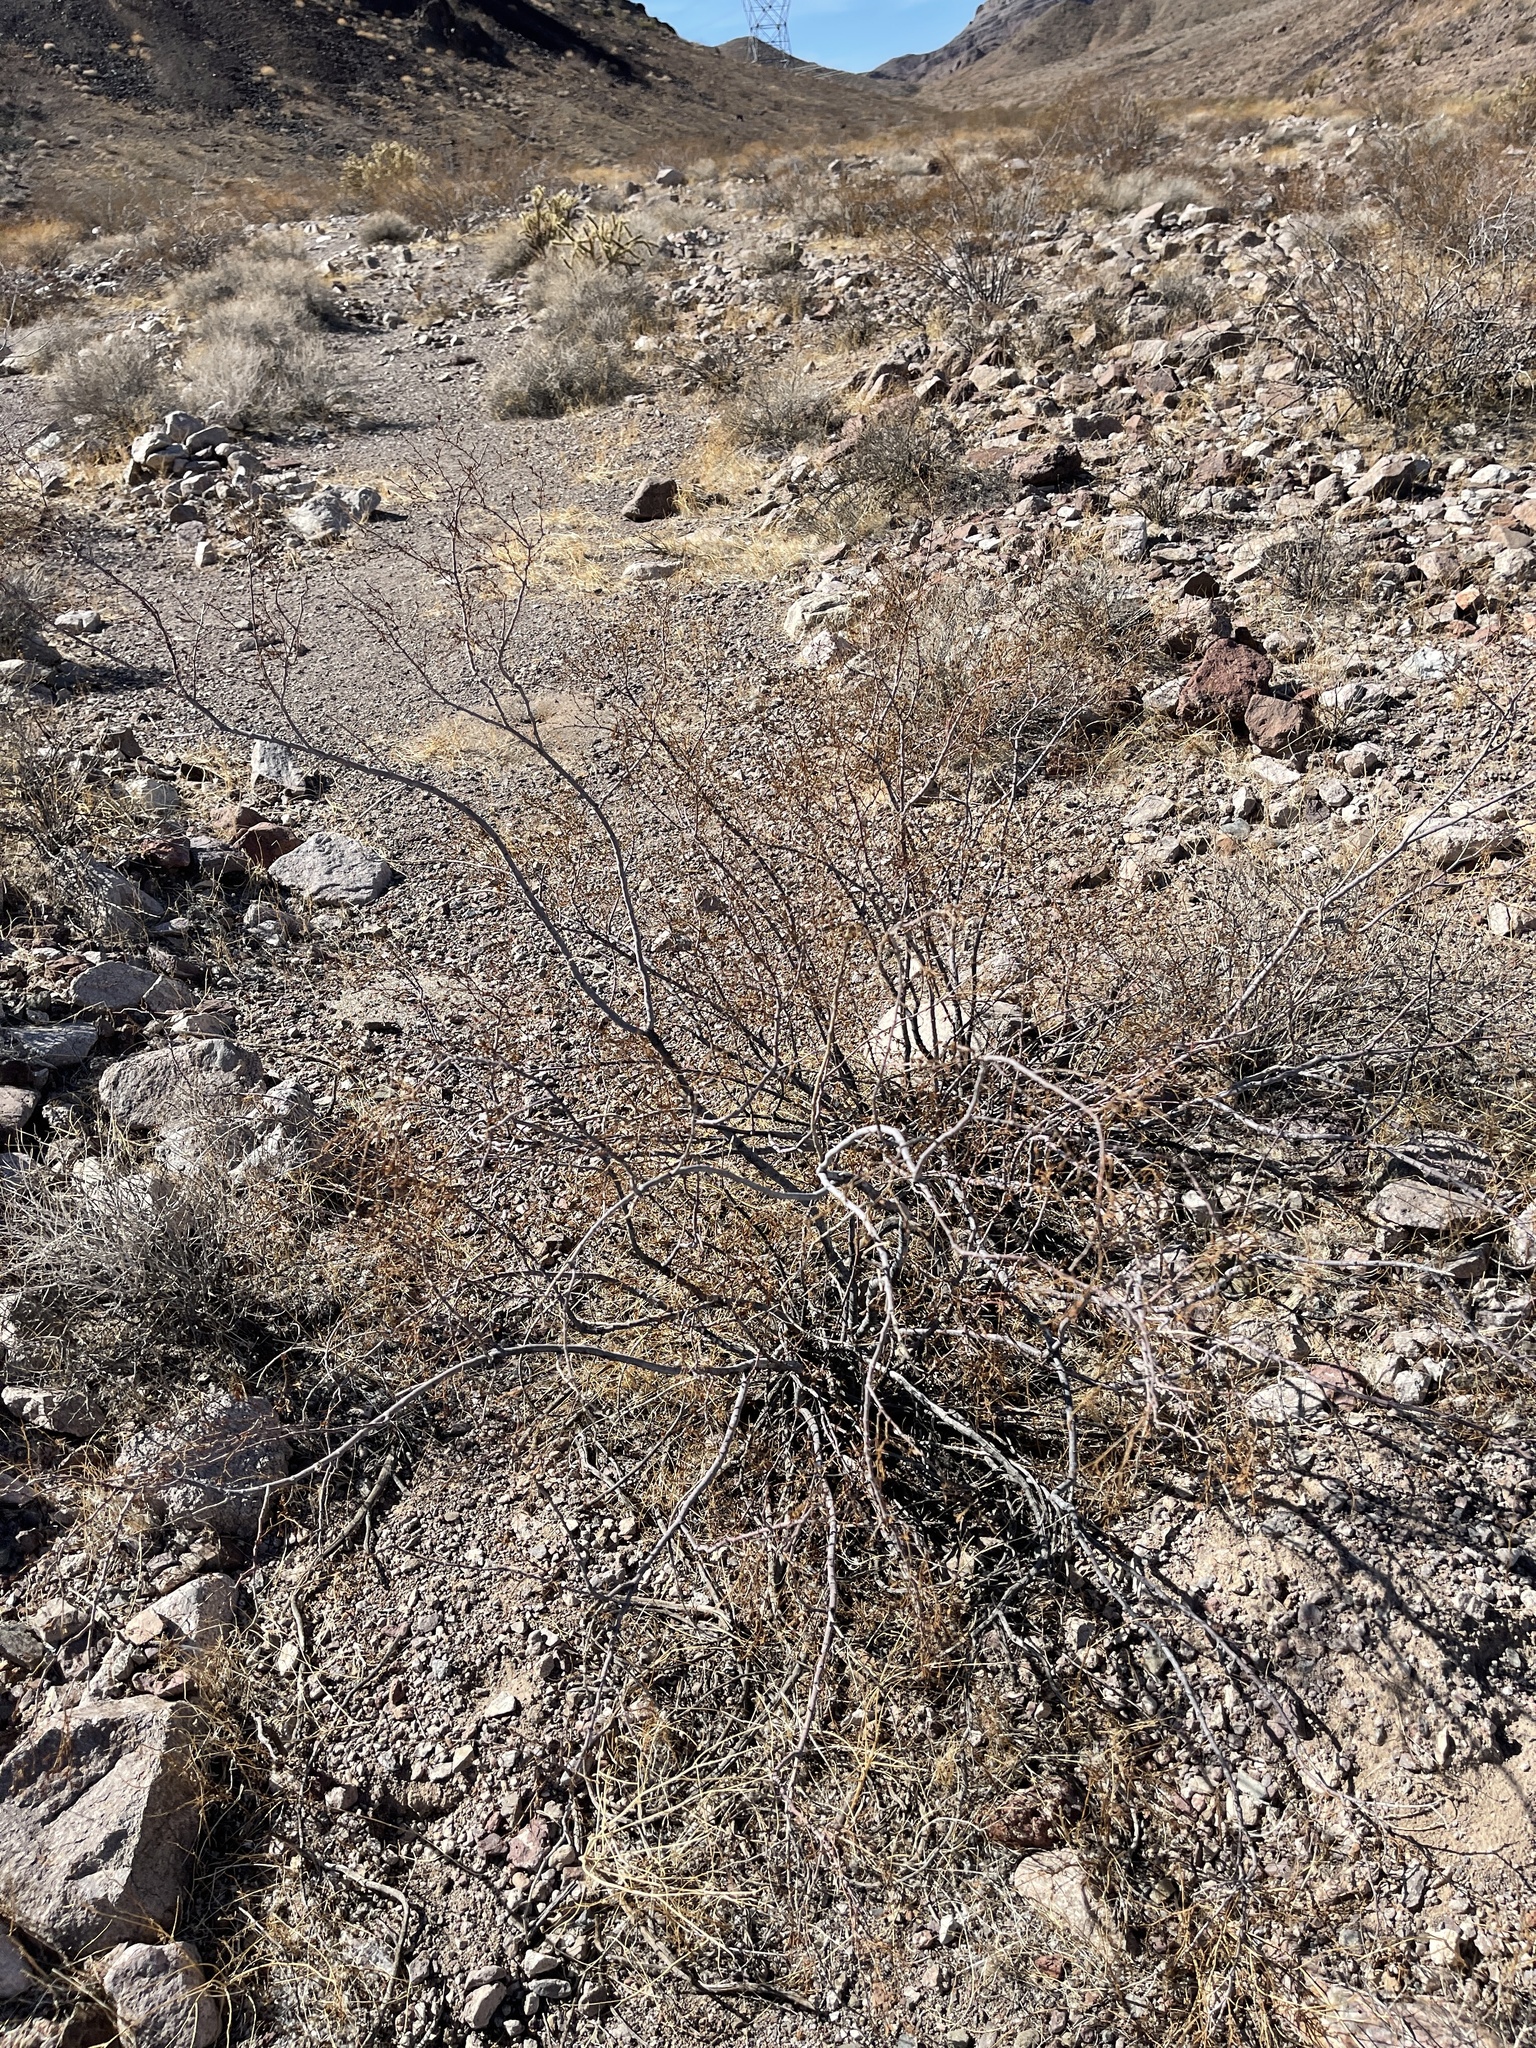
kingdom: Plantae
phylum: Tracheophyta
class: Magnoliopsida
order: Zygophyllales
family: Zygophyllaceae
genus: Larrea
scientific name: Larrea tridentata
